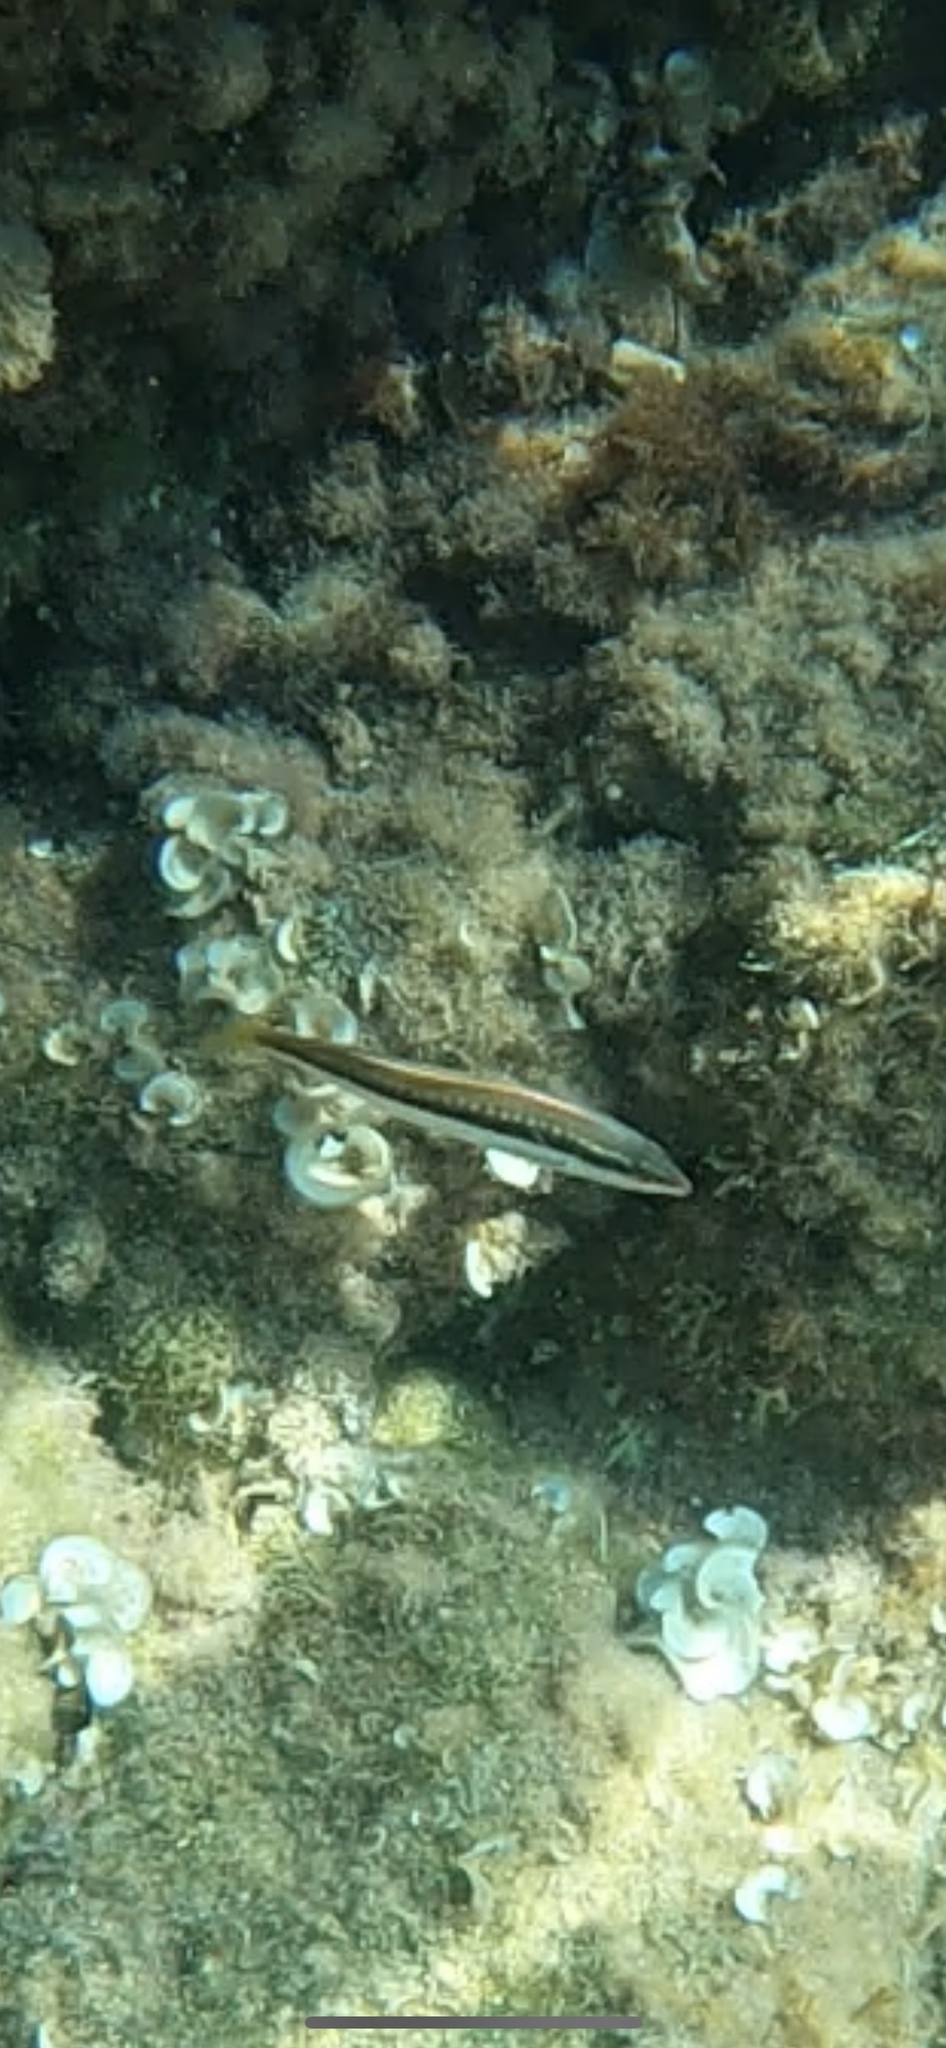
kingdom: Animalia
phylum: Chordata
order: Perciformes
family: Labridae
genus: Coris
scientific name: Coris julis
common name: Rainbow wrasse
